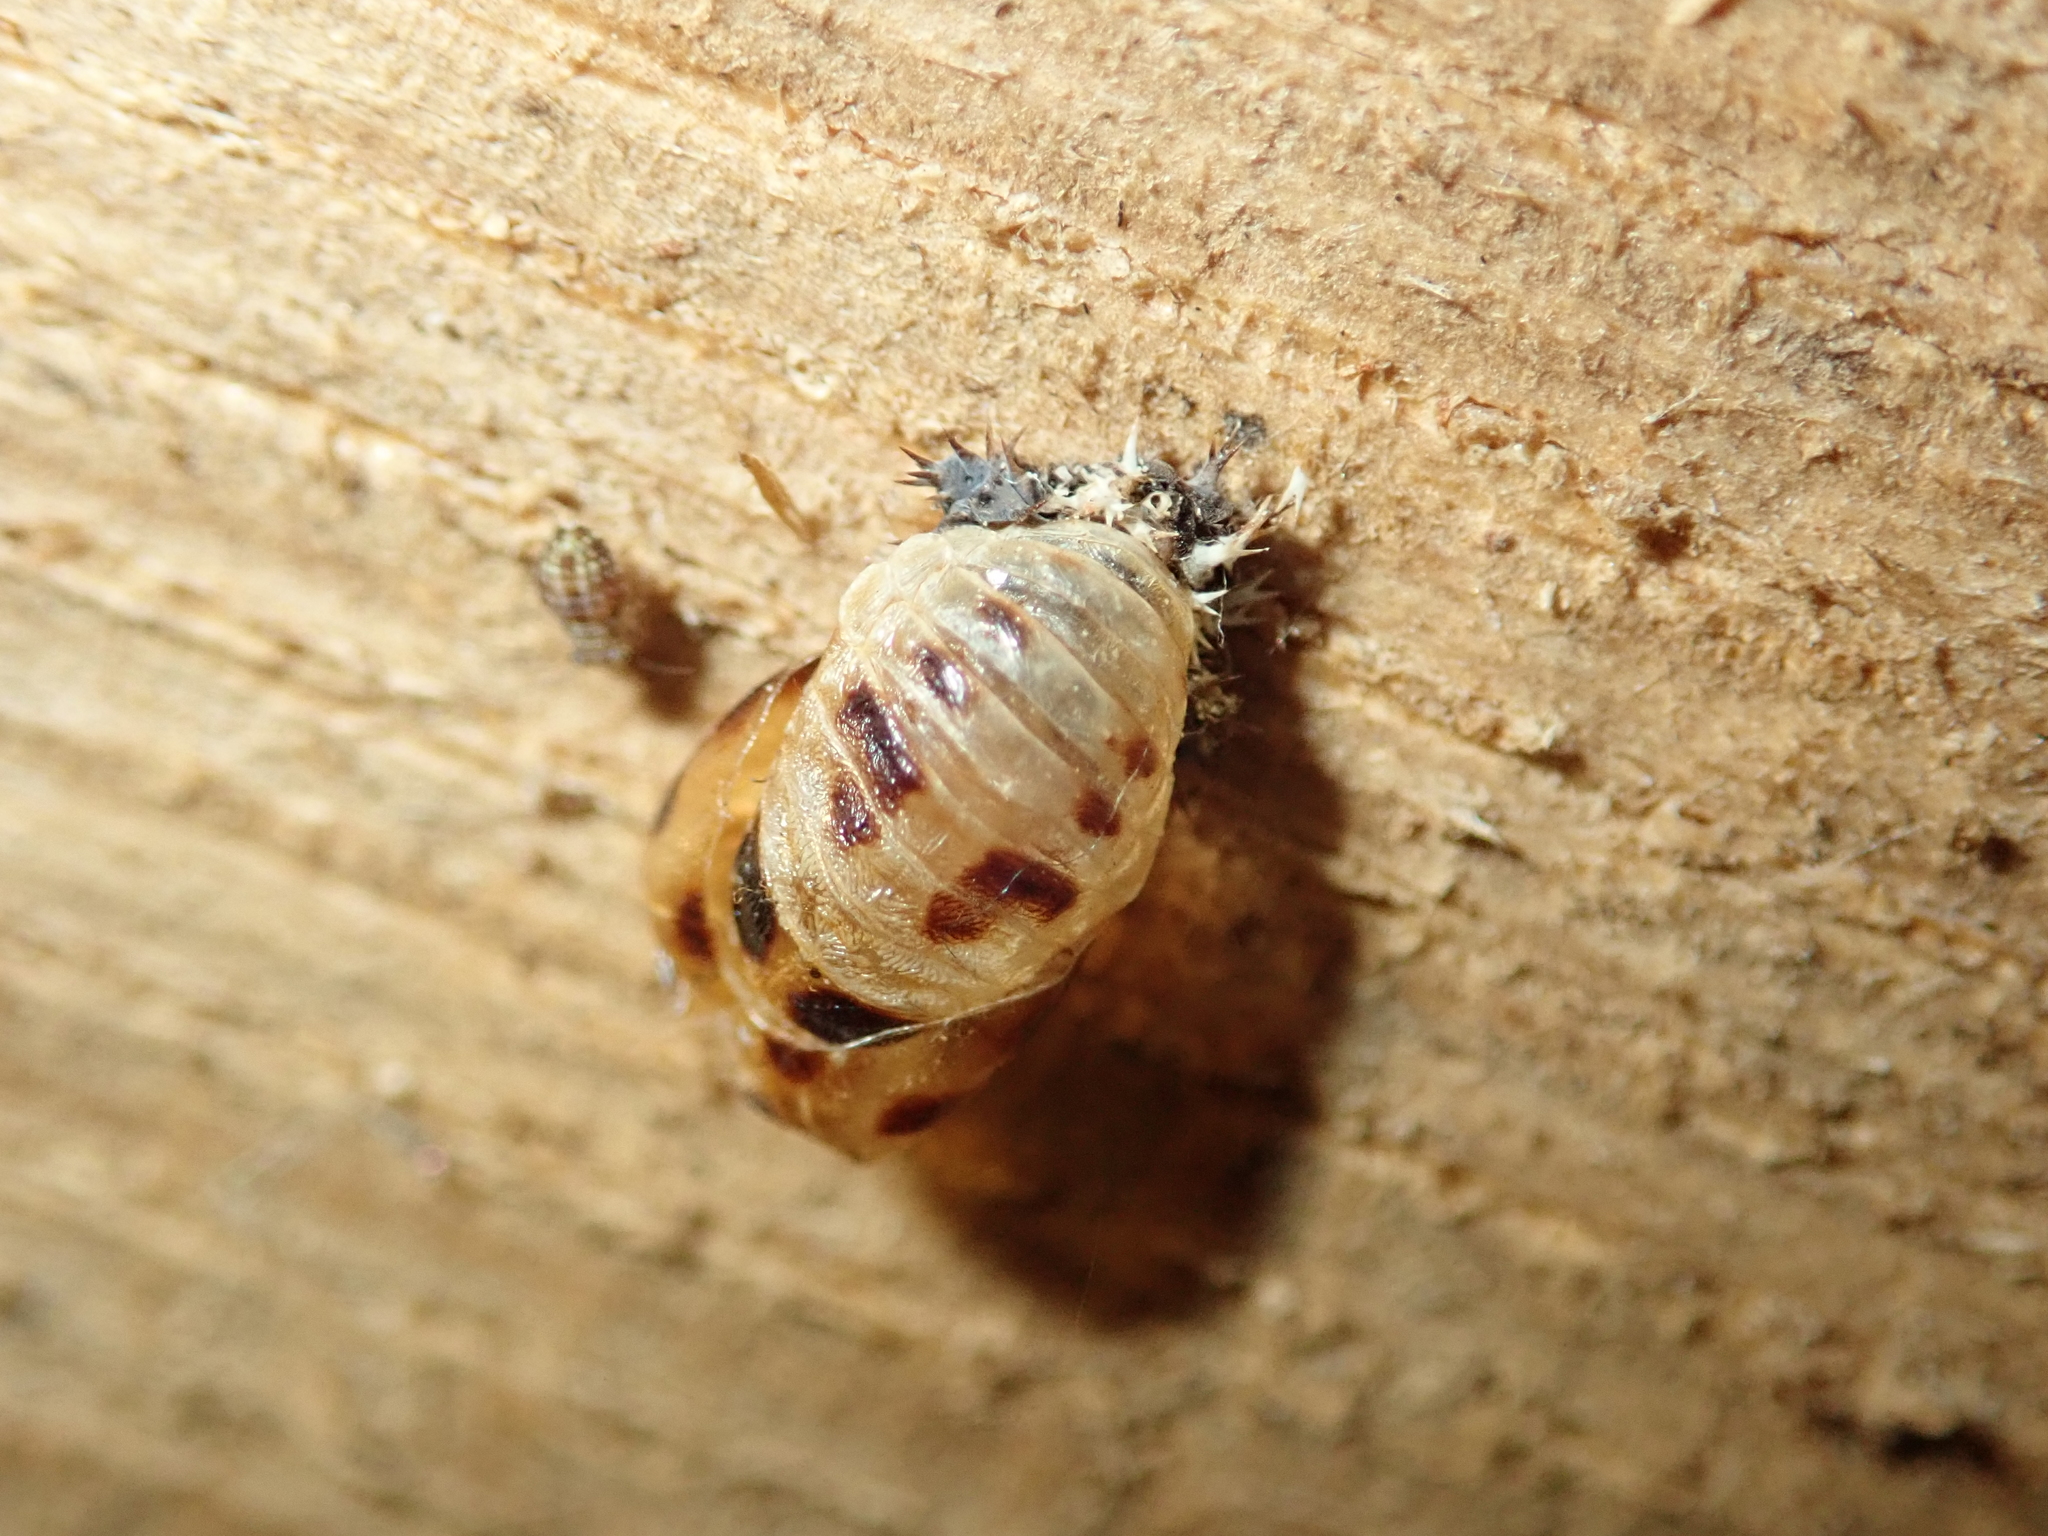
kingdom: Animalia
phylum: Arthropoda
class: Insecta
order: Coleoptera
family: Coccinellidae
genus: Harmonia
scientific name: Harmonia axyridis
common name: Harlequin ladybird
